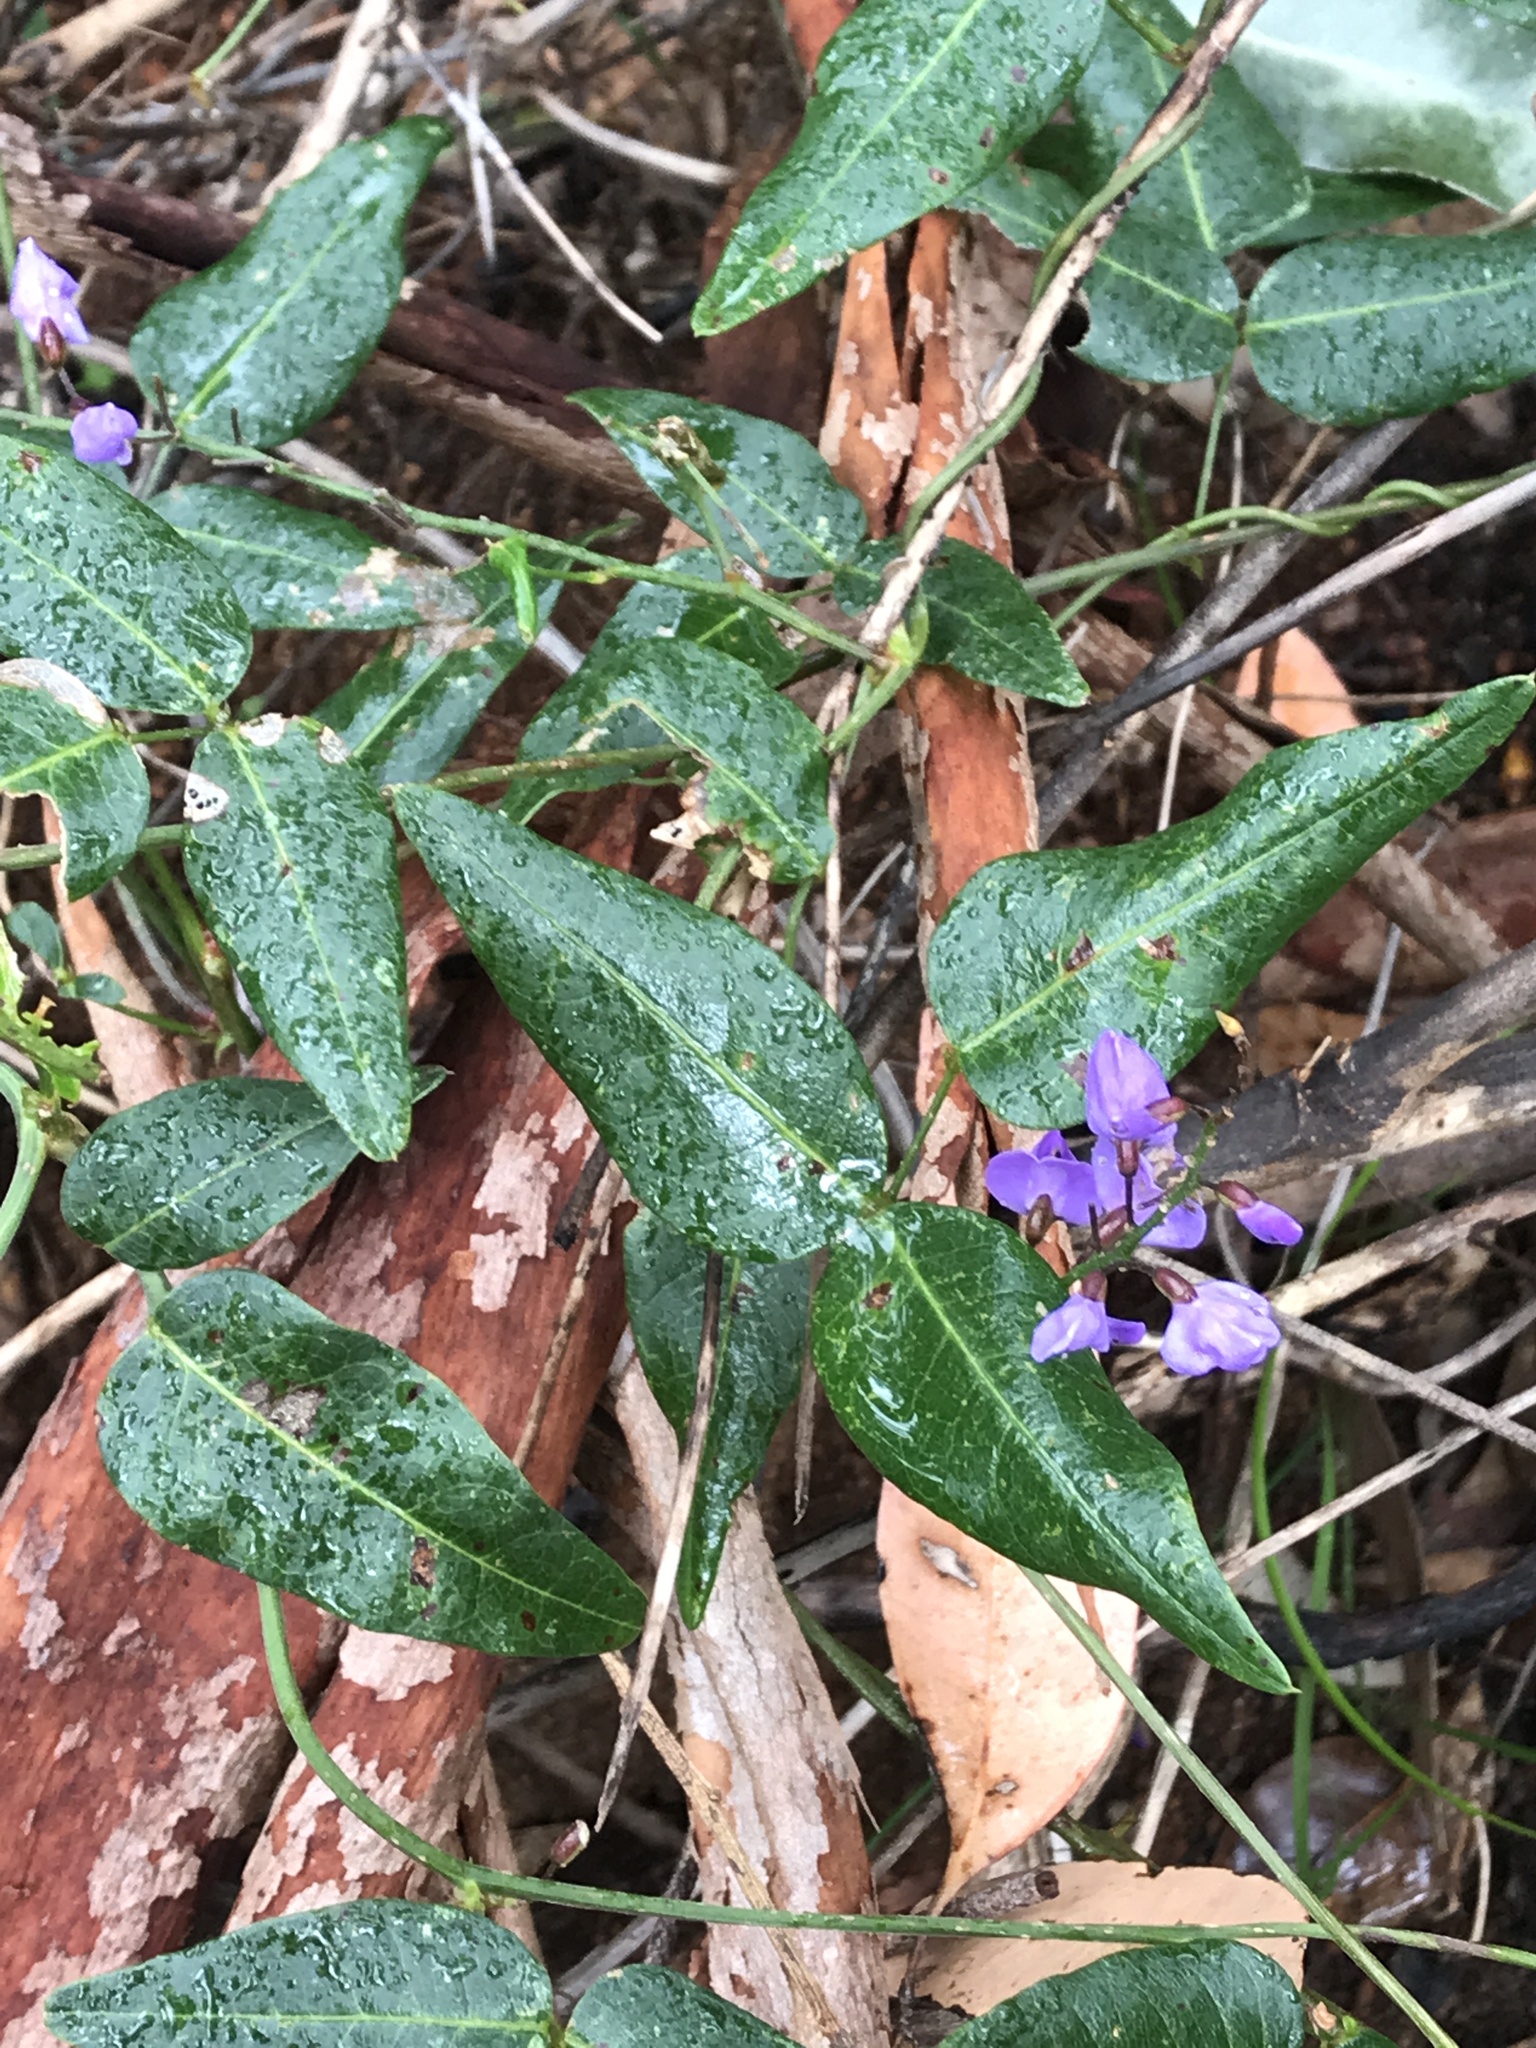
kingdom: Plantae
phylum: Tracheophyta
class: Magnoliopsida
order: Fabales
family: Fabaceae
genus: Hardenbergia
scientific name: Hardenbergia comptoniana
